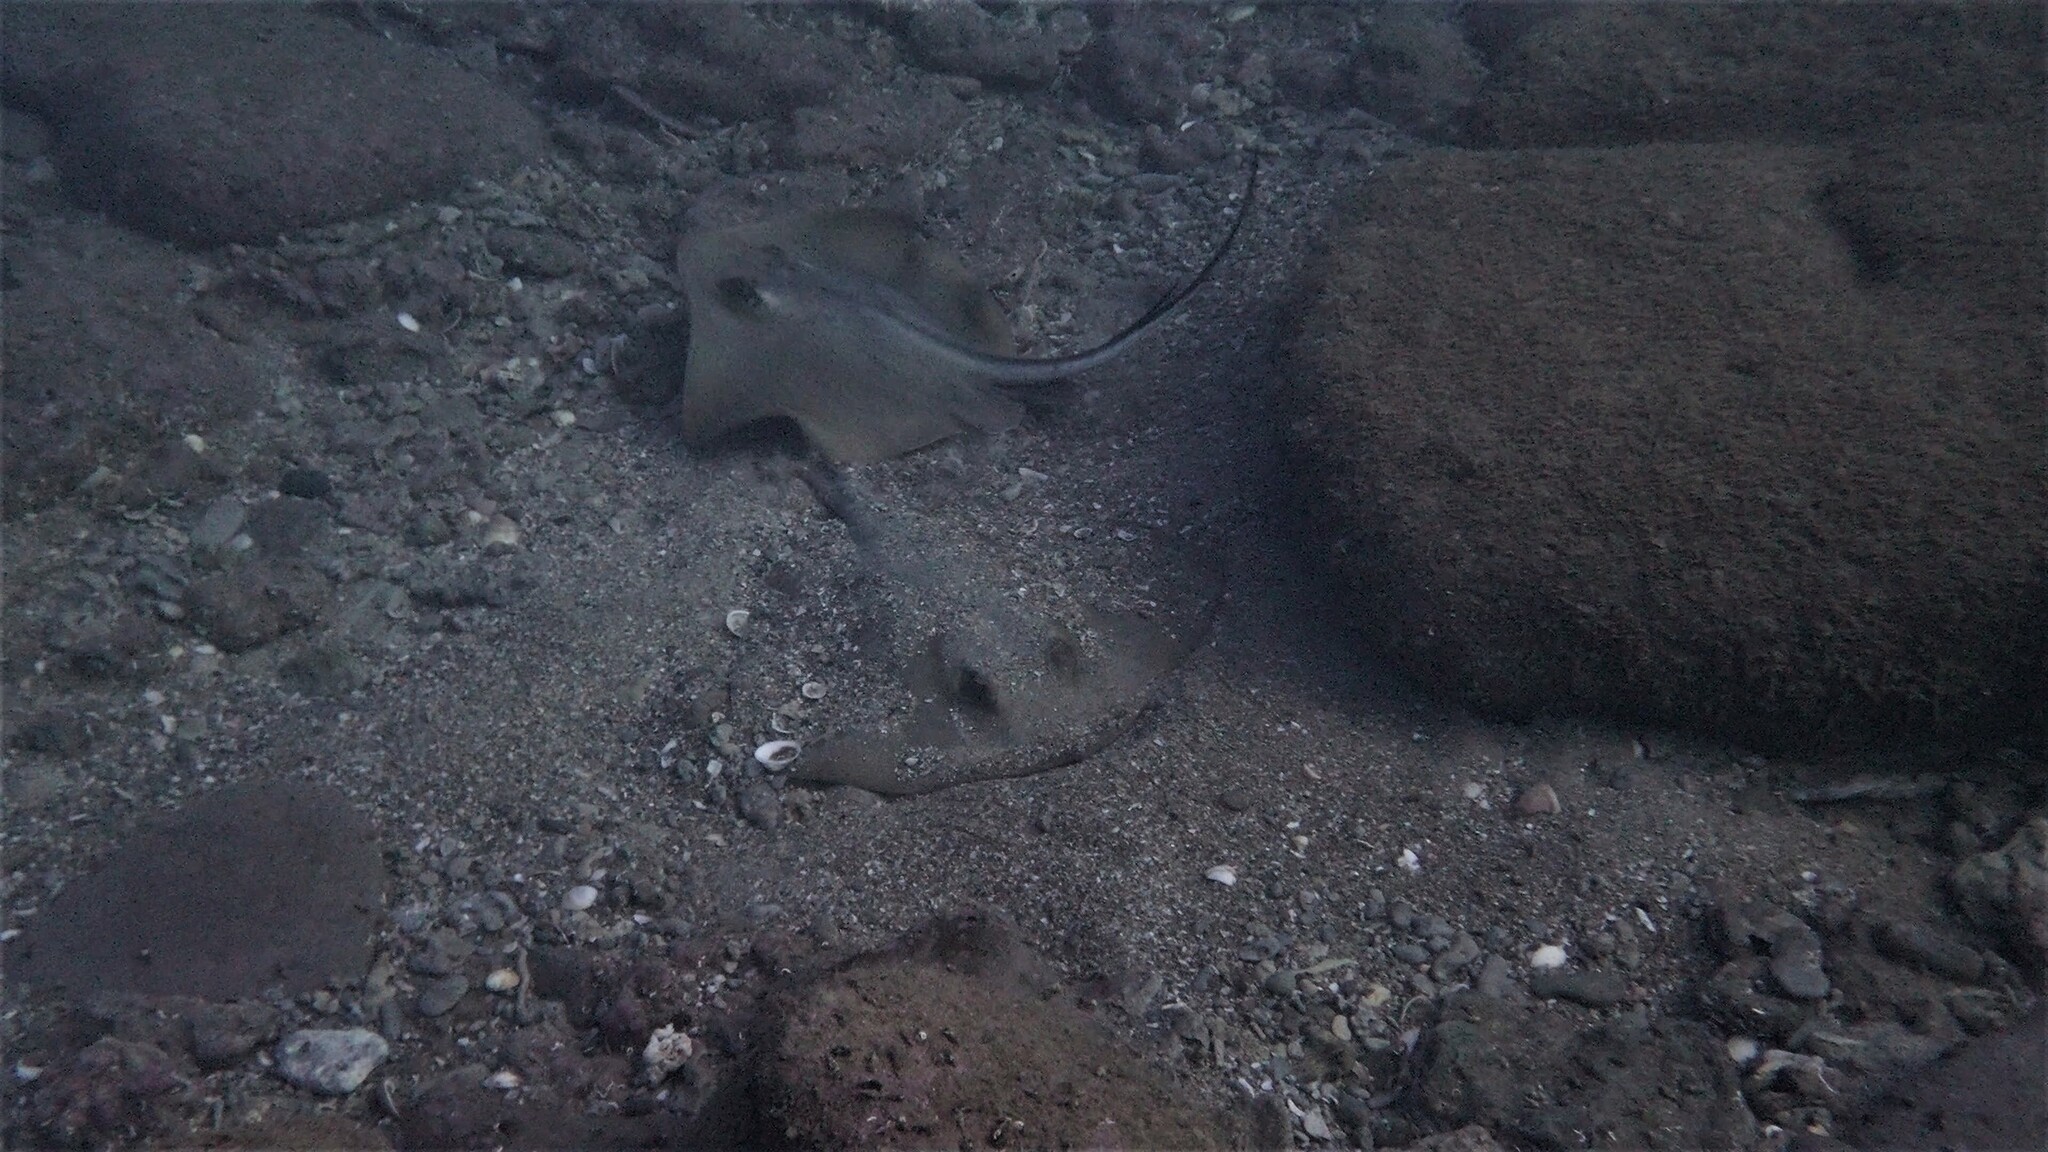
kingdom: Animalia
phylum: Chordata
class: Elasmobranchii
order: Myliobatiformes
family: Dasyatidae
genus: Dasyatis
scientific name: Dasyatis pastinaca
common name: Common stingray
